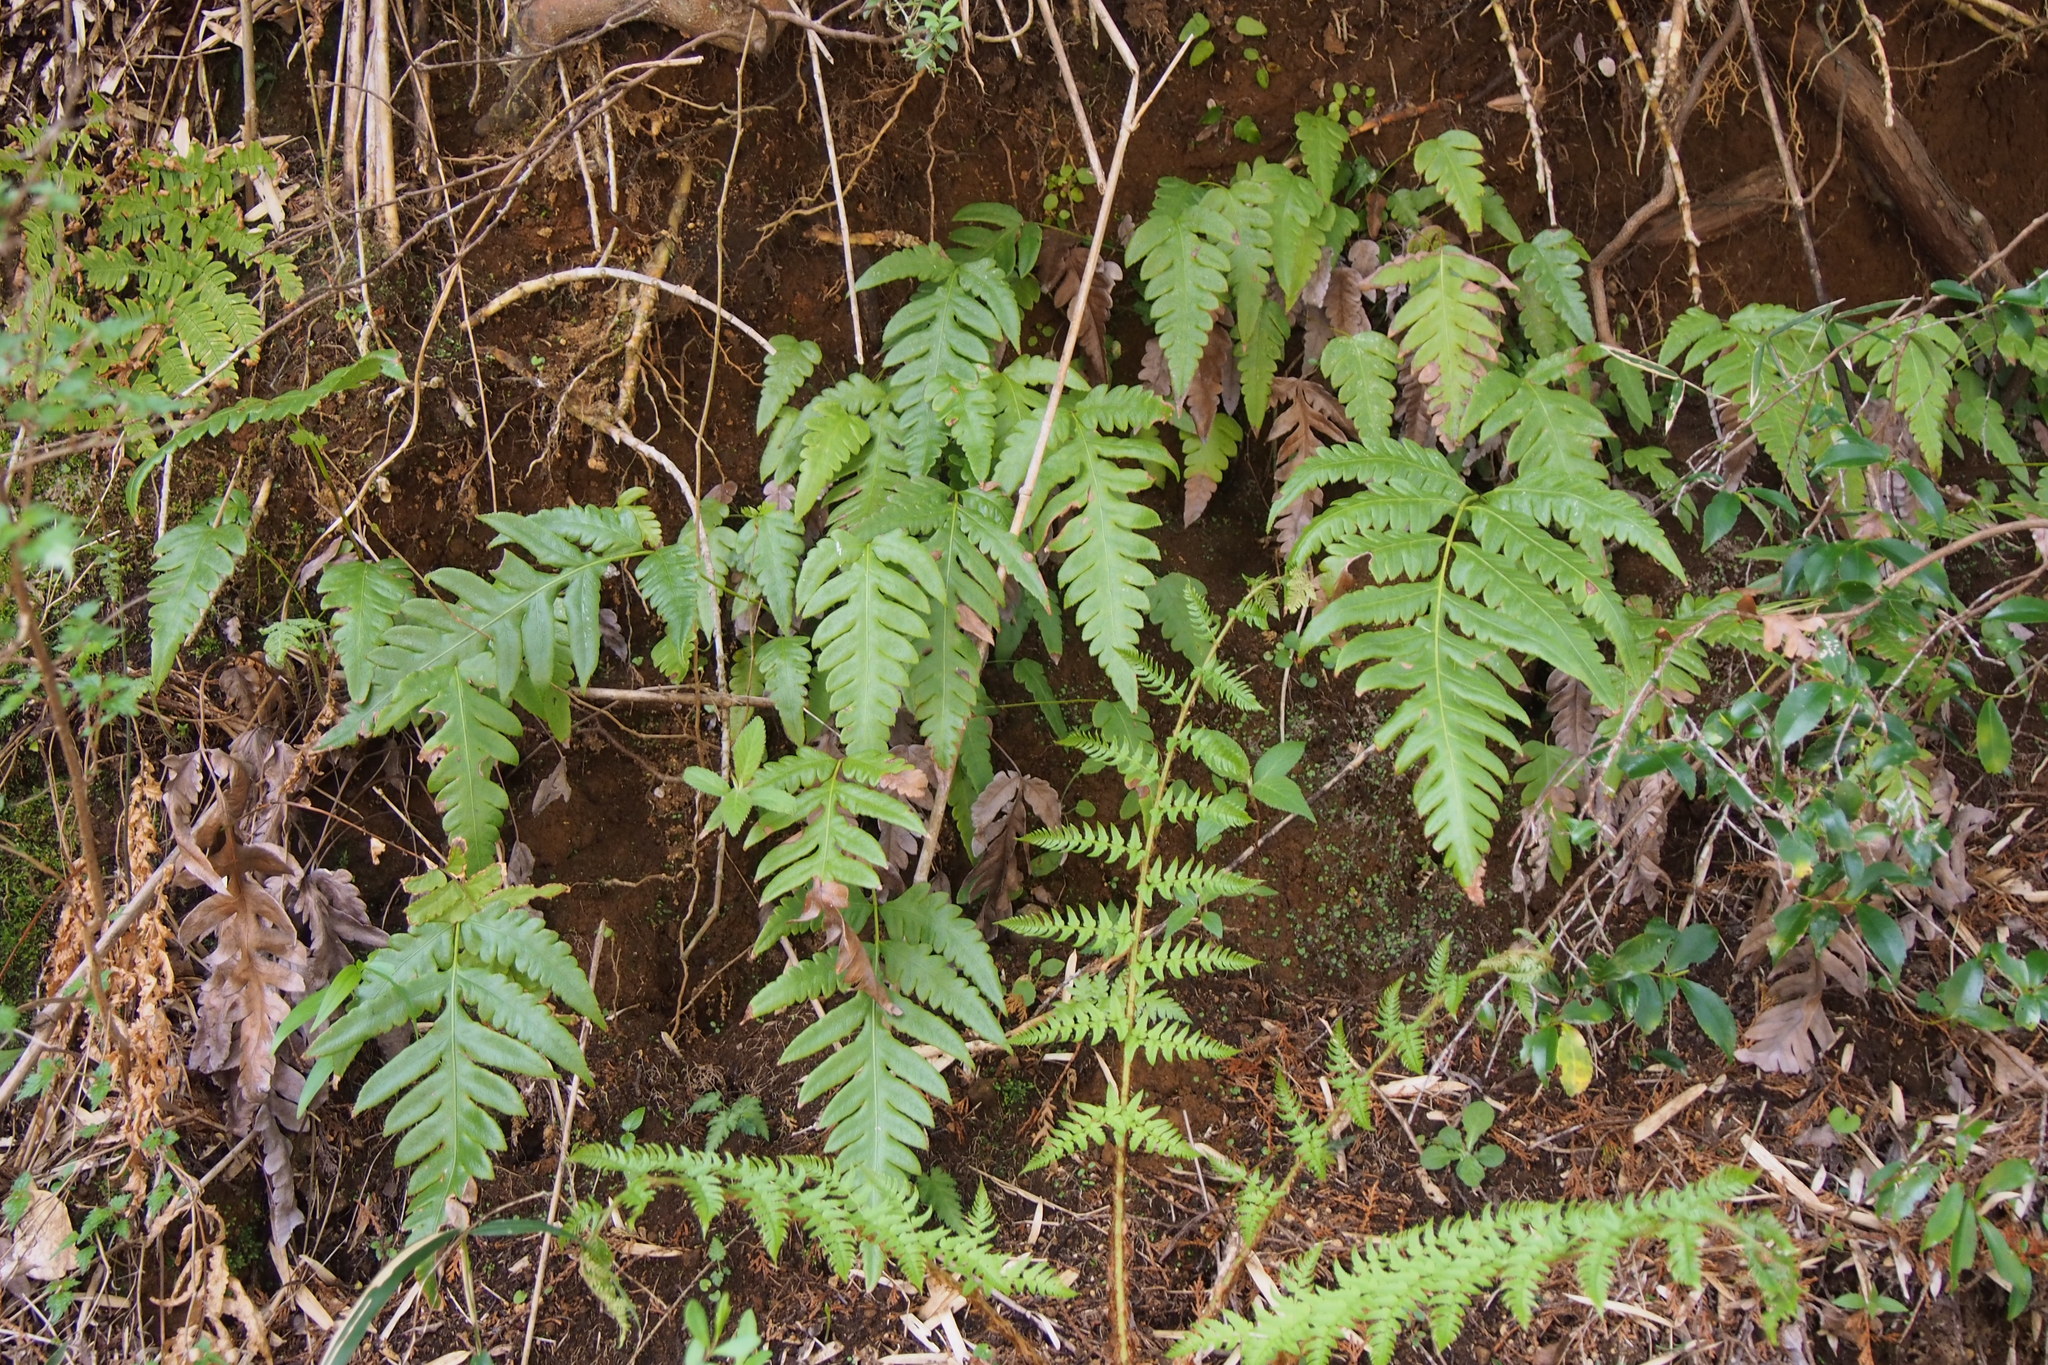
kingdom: Plantae
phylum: Tracheophyta
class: Polypodiopsida
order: Polypodiales
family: Blechnaceae
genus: Woodwardia
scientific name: Woodwardia orientalis
